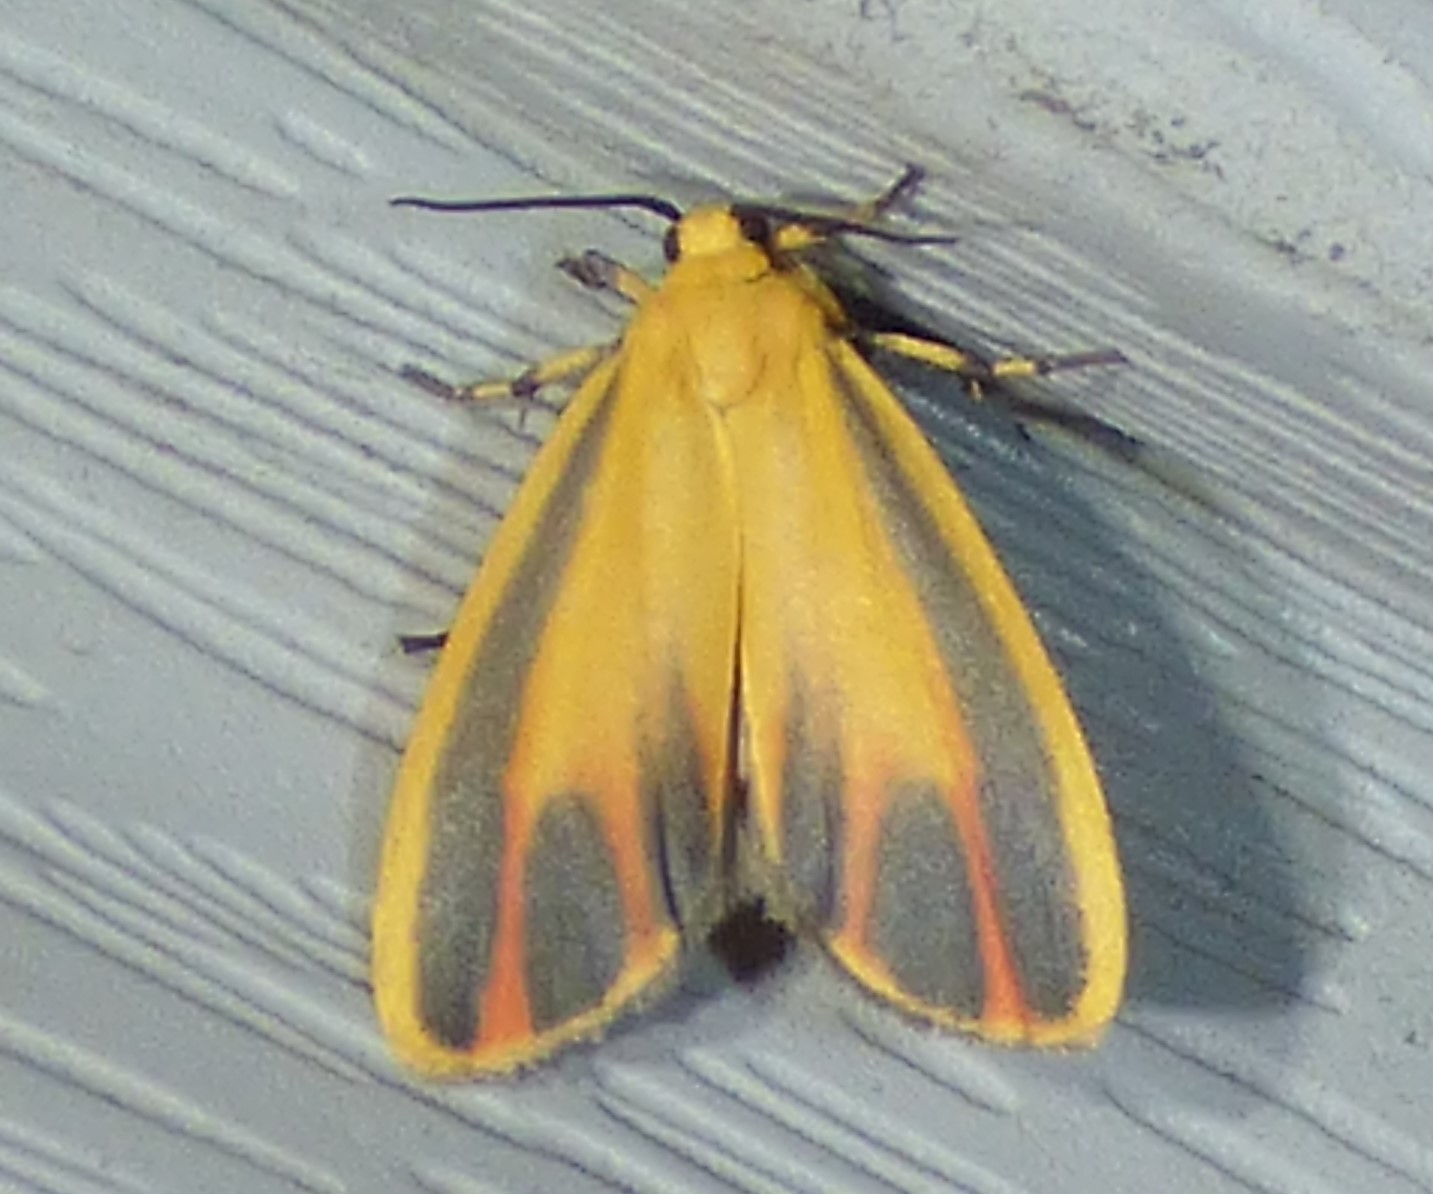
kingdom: Animalia
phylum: Arthropoda
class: Insecta
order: Lepidoptera
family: Erebidae
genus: Hypoprepia
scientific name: Hypoprepia fucosa
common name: Painted lichen moth
